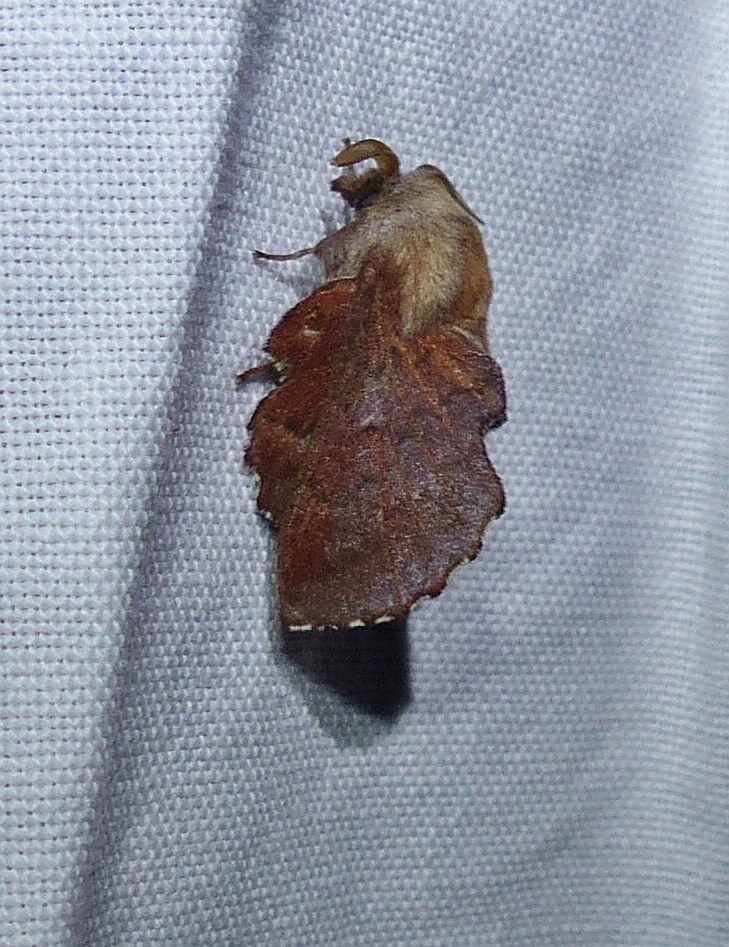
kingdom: Animalia
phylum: Arthropoda
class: Insecta
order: Lepidoptera
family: Lasiocampidae
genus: Phyllodesma
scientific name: Phyllodesma americana
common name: American lappet moth
